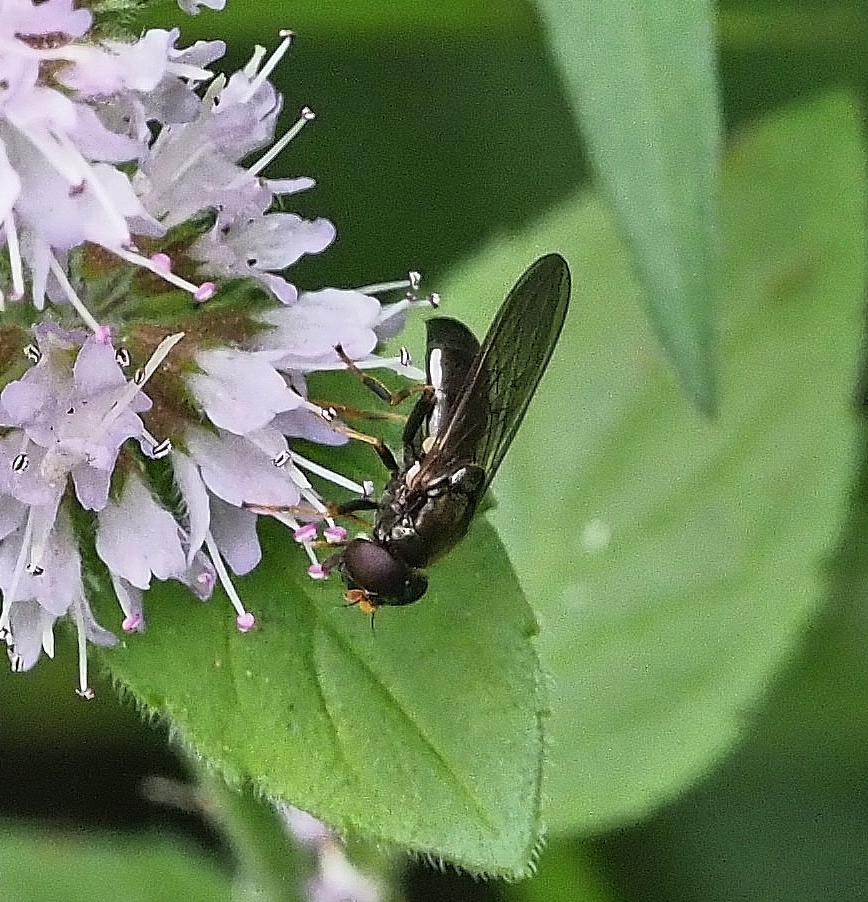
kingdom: Animalia
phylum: Arthropoda
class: Insecta
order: Diptera
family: Syrphidae
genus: Cheilosia
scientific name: Cheilosia pagana
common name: Hover fly
